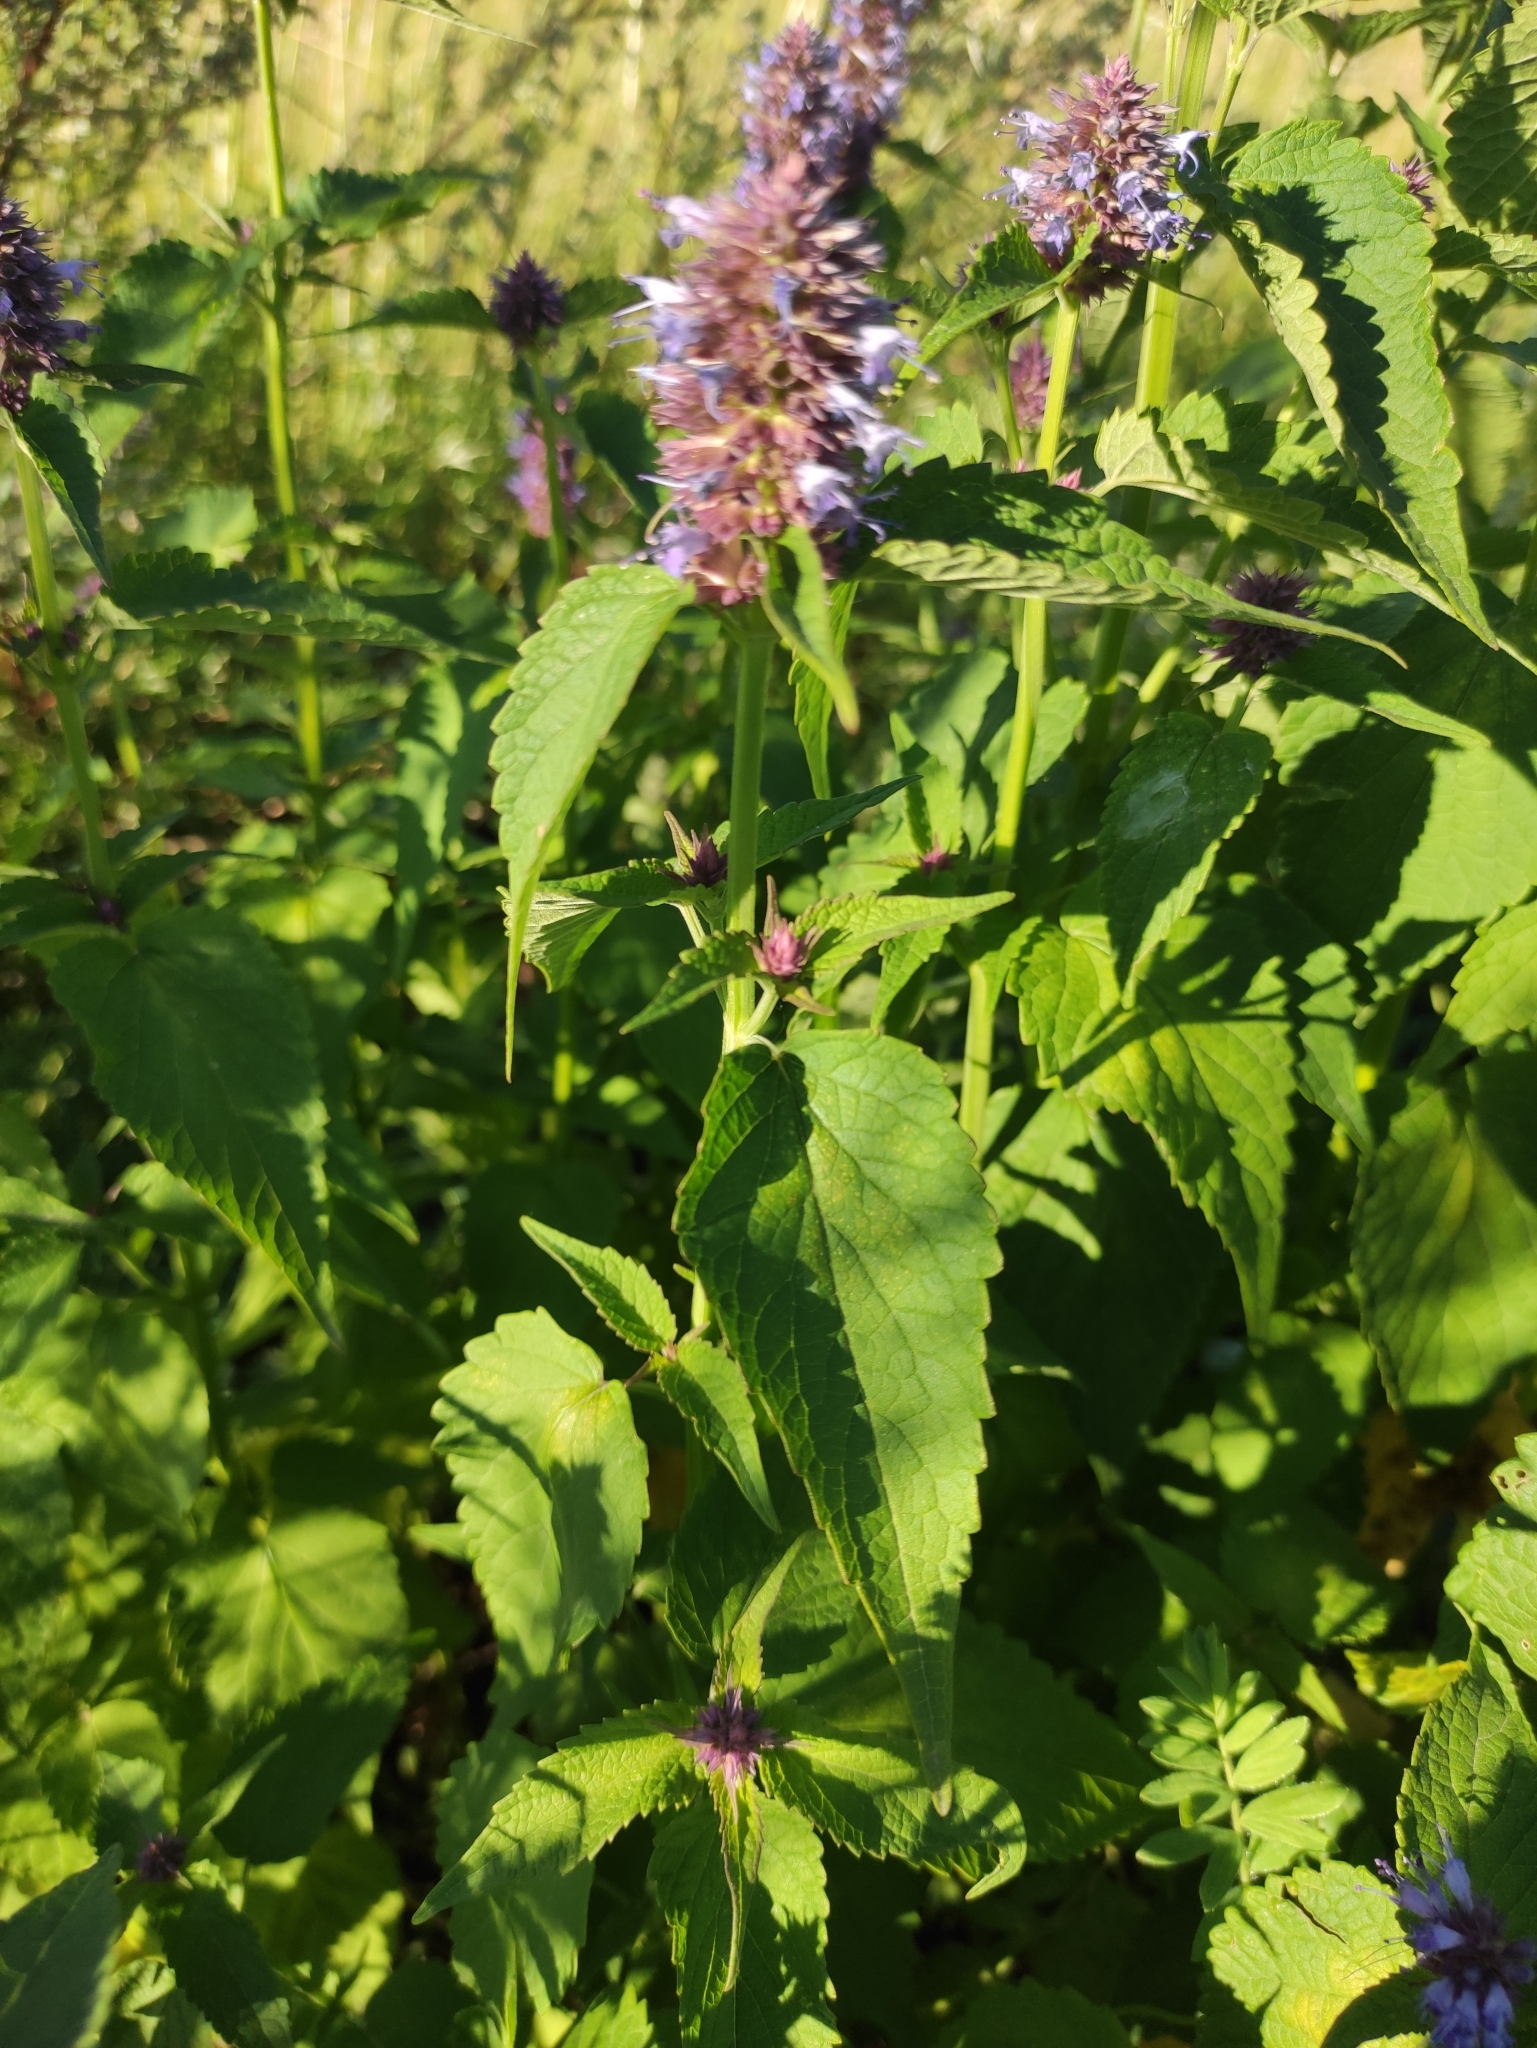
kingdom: Plantae
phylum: Tracheophyta
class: Magnoliopsida
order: Lamiales
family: Lamiaceae
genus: Agastache
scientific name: Agastache rugosa
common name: Mint
